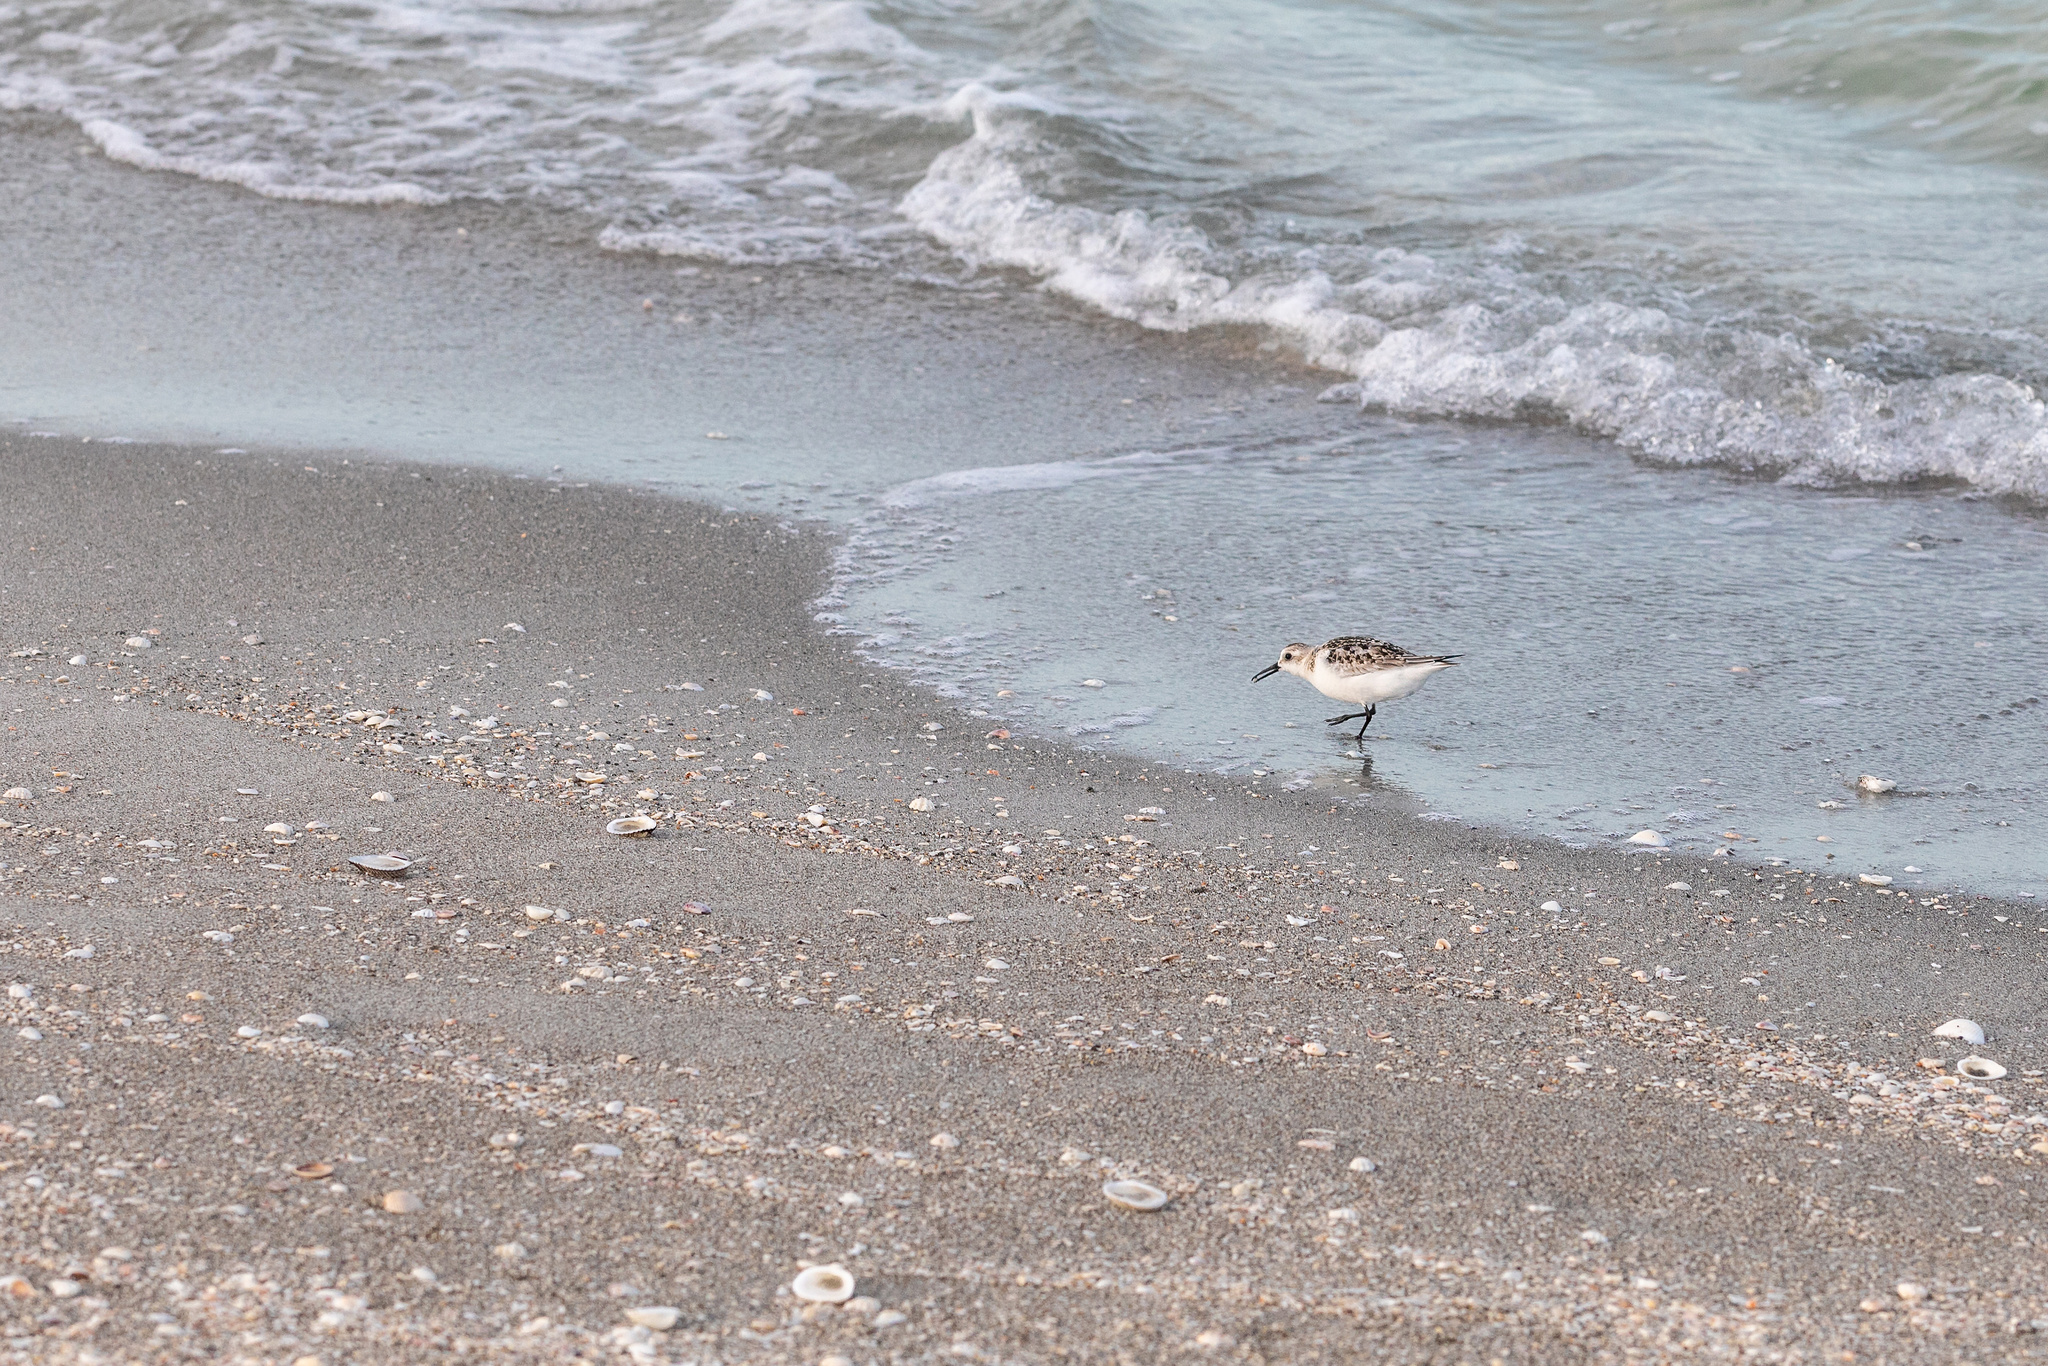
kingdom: Animalia
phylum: Chordata
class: Aves
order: Charadriiformes
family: Scolopacidae
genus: Calidris
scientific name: Calidris alba
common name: Sanderling
